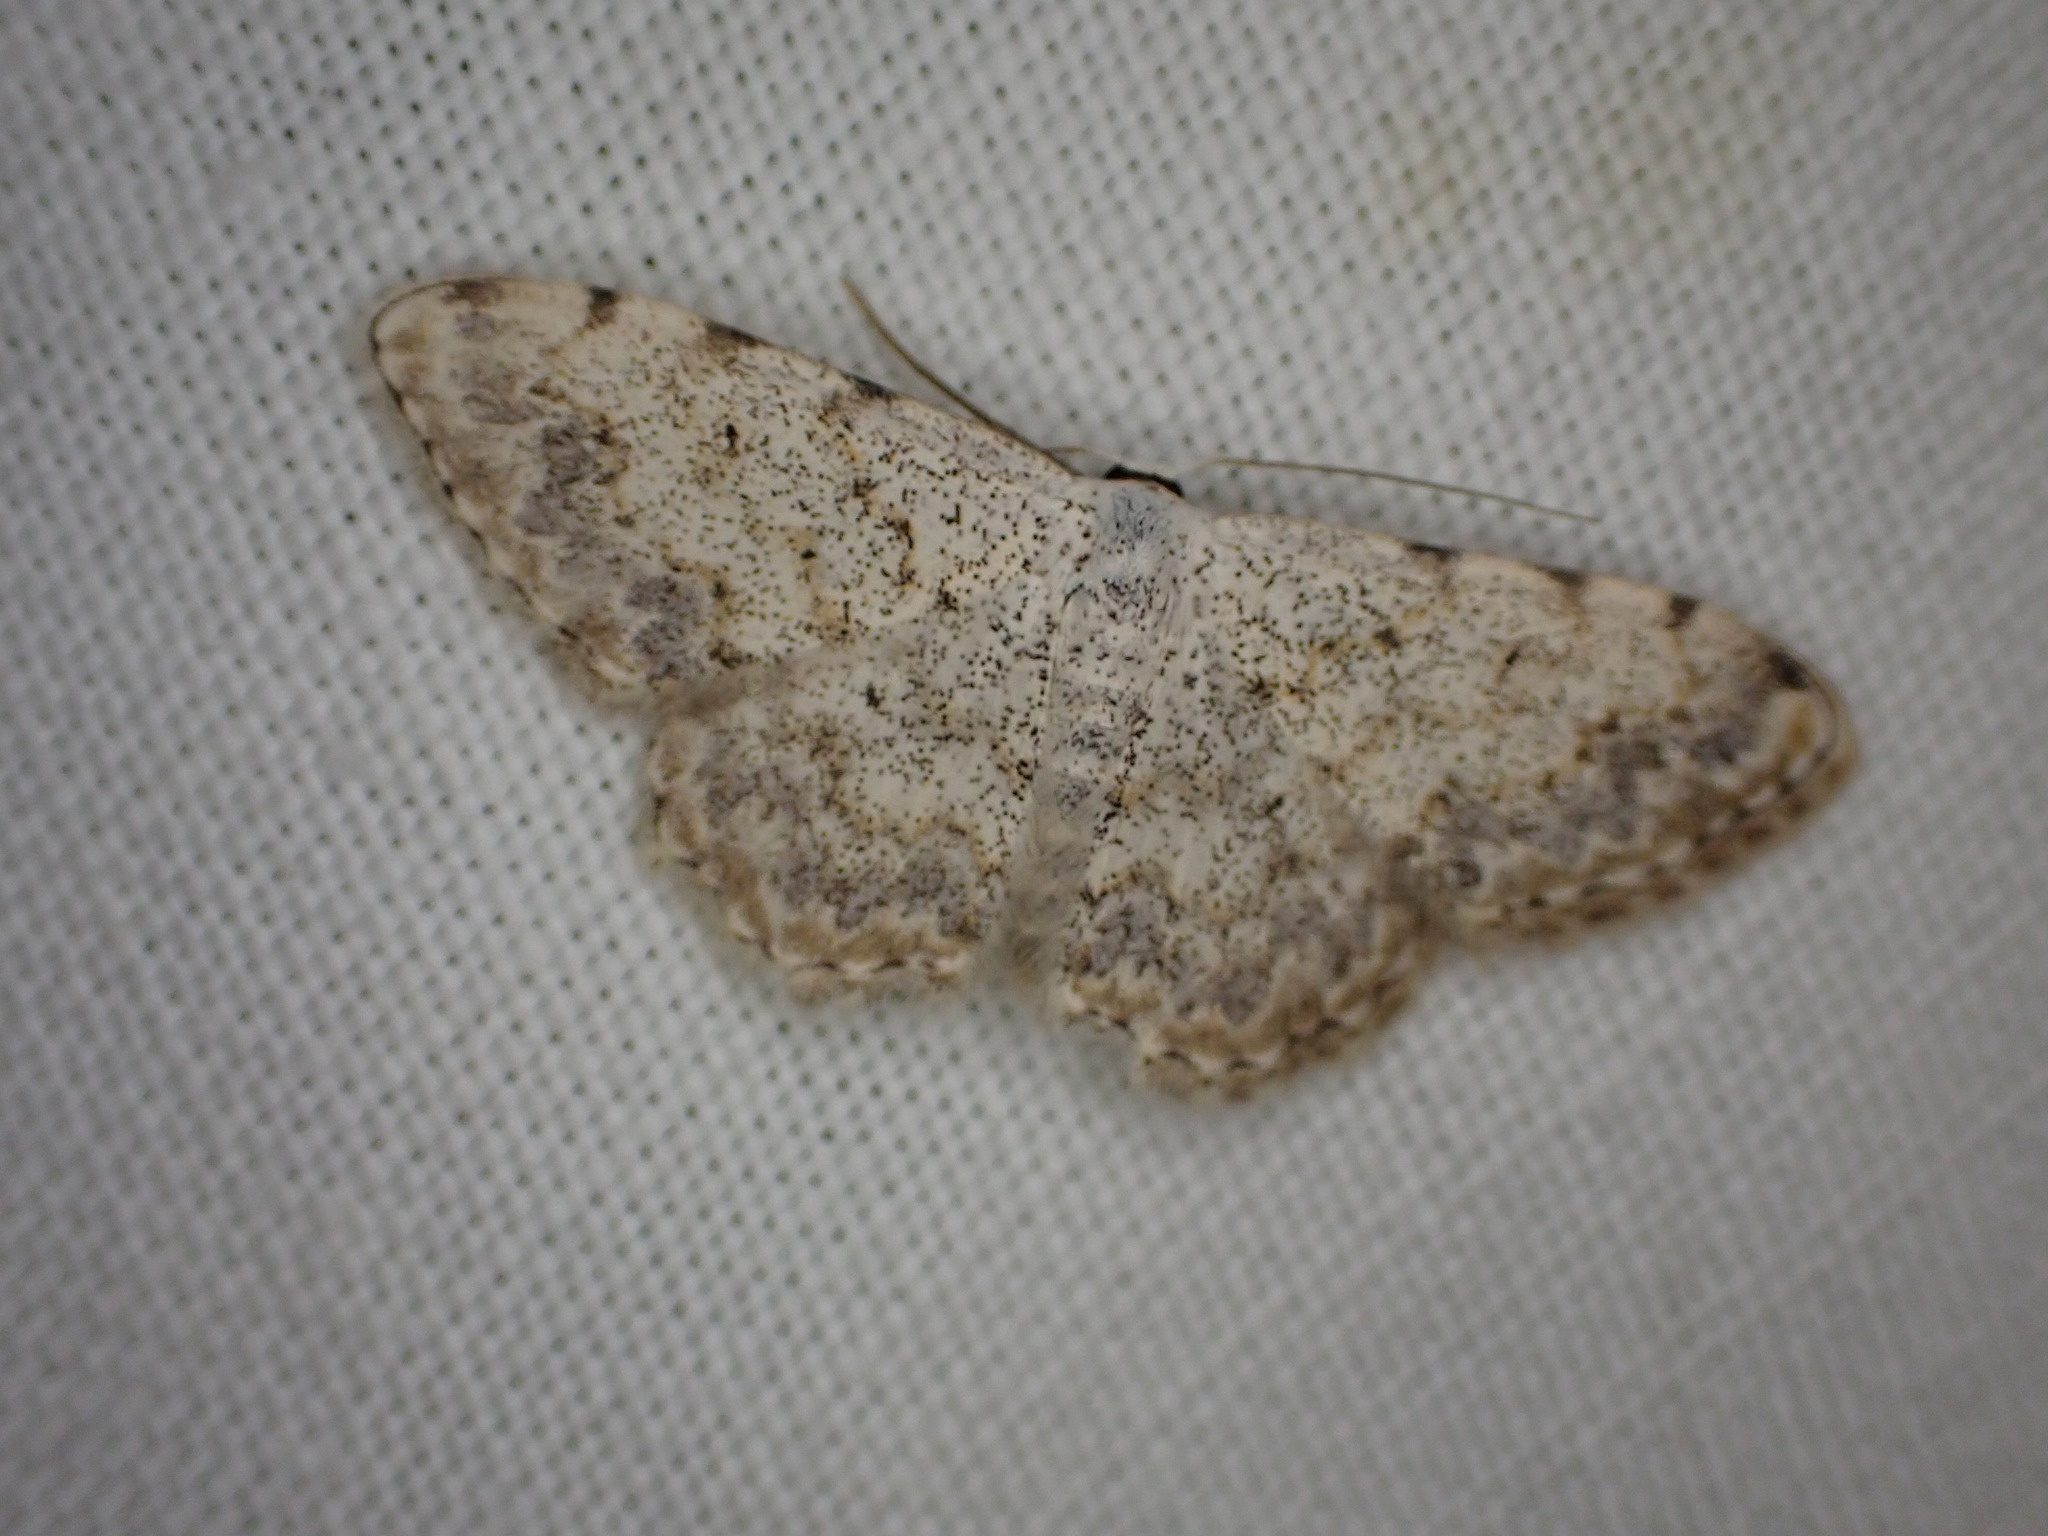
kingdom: Animalia
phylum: Arthropoda
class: Insecta
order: Lepidoptera
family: Geometridae
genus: Scopula
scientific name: Scopula submutata
